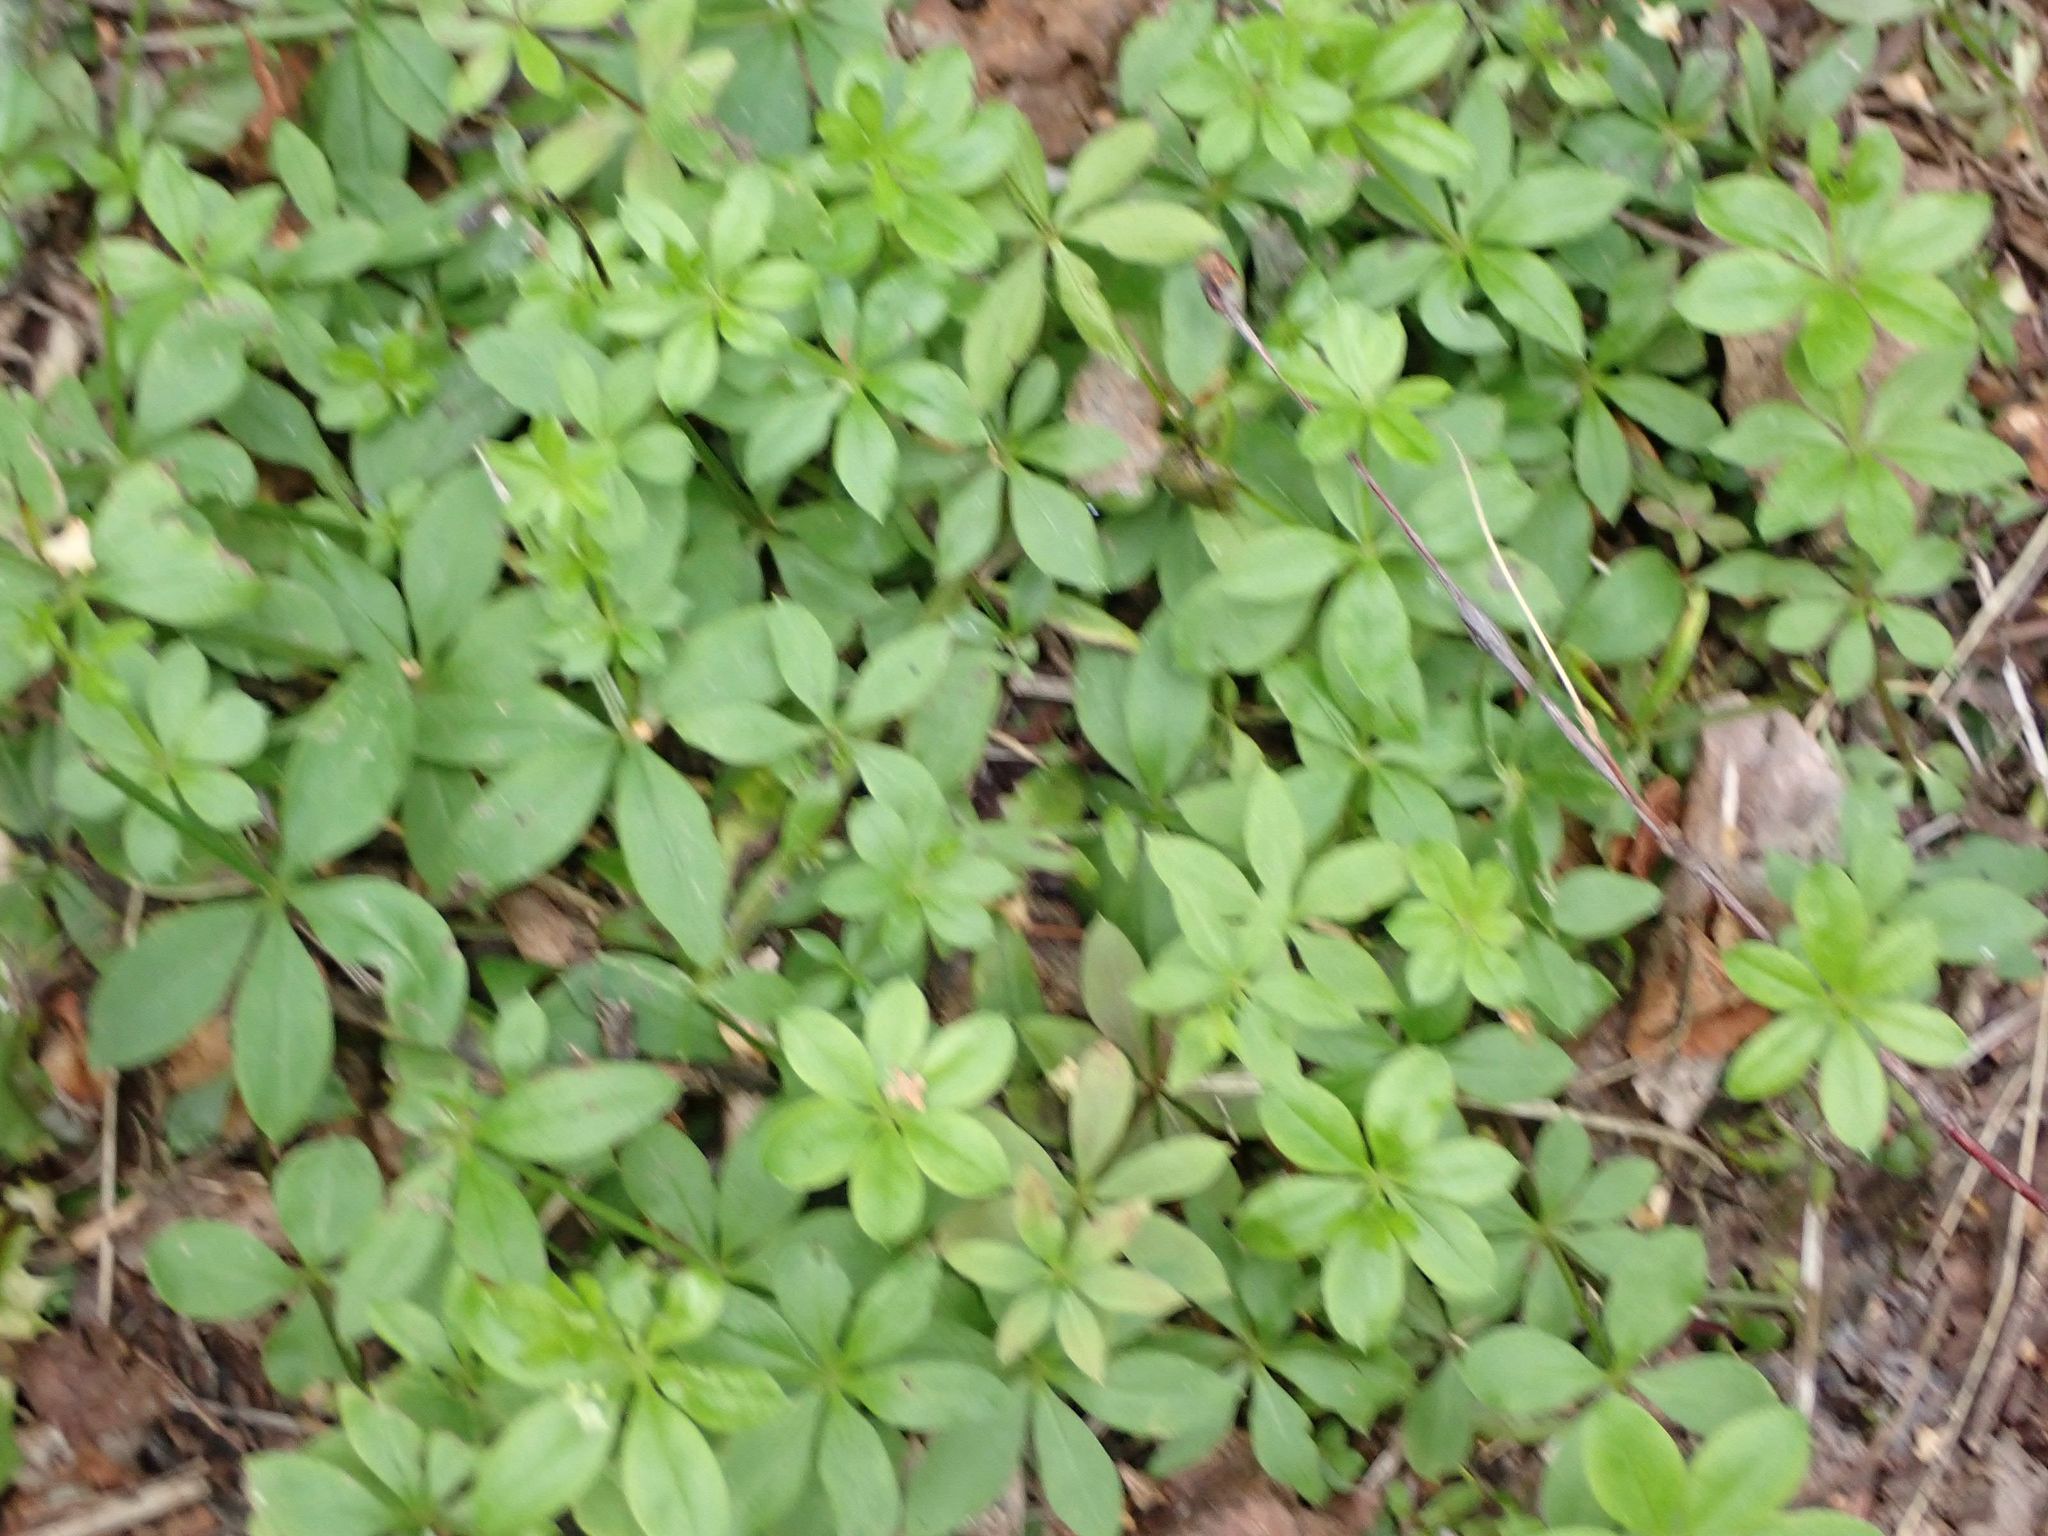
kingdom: Plantae
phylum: Tracheophyta
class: Magnoliopsida
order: Gentianales
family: Rubiaceae
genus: Galium
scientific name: Galium triflorum
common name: Fragrant bedstraw
